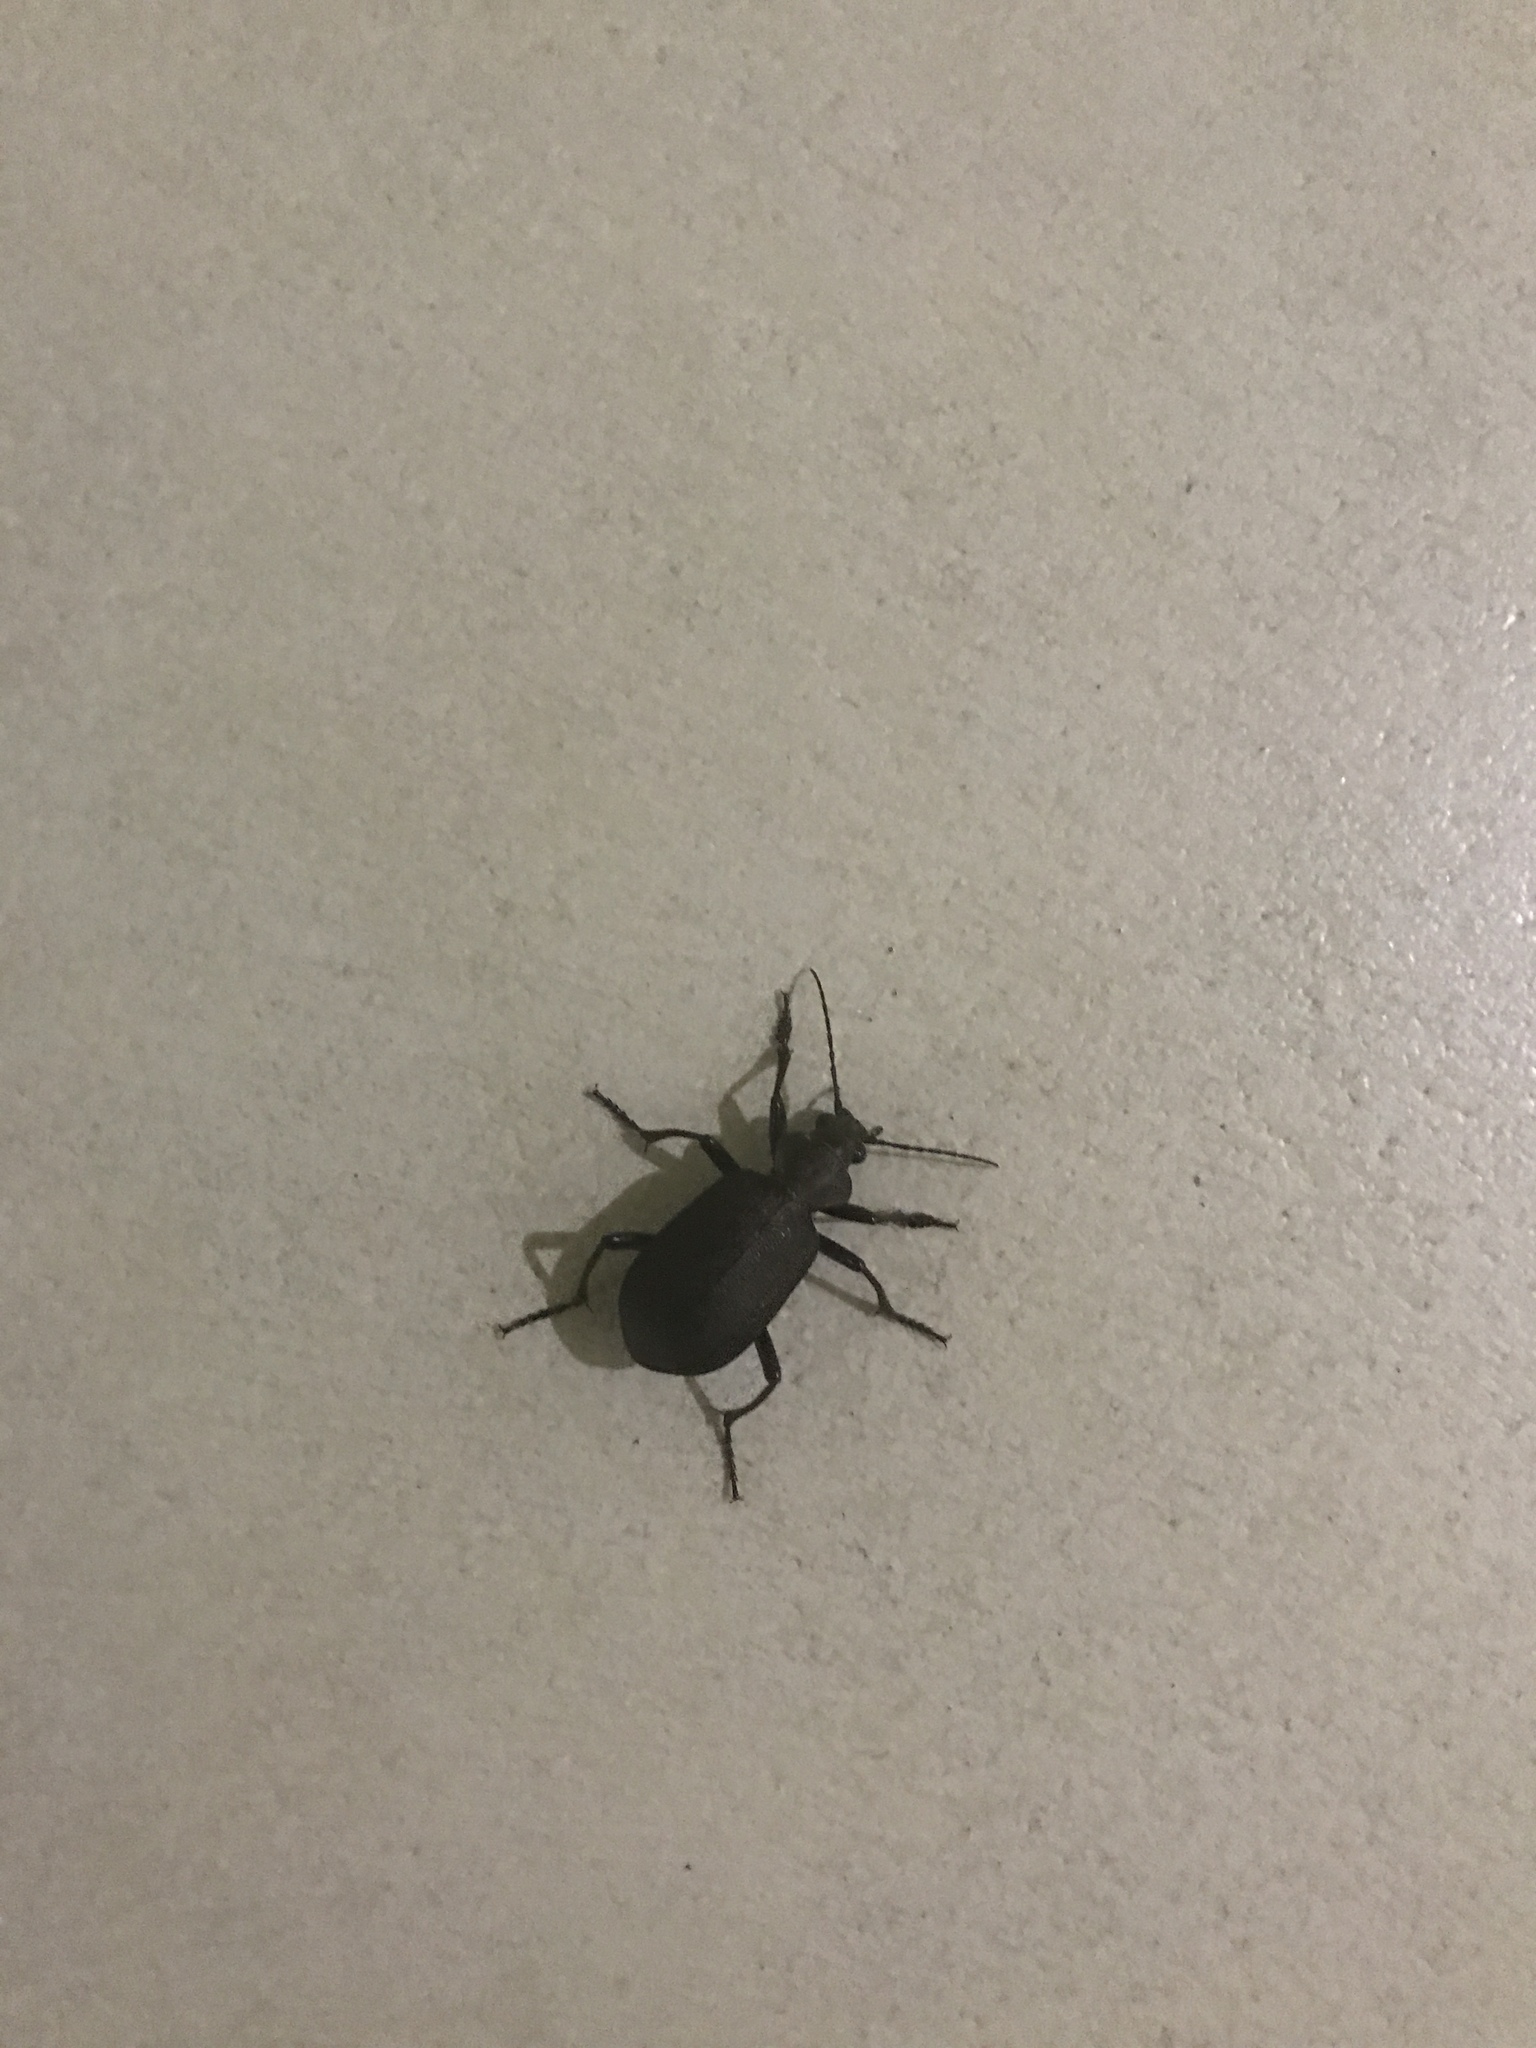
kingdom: Animalia
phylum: Arthropoda
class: Insecta
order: Coleoptera
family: Carabidae
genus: Calosoma
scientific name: Calosoma orientale
